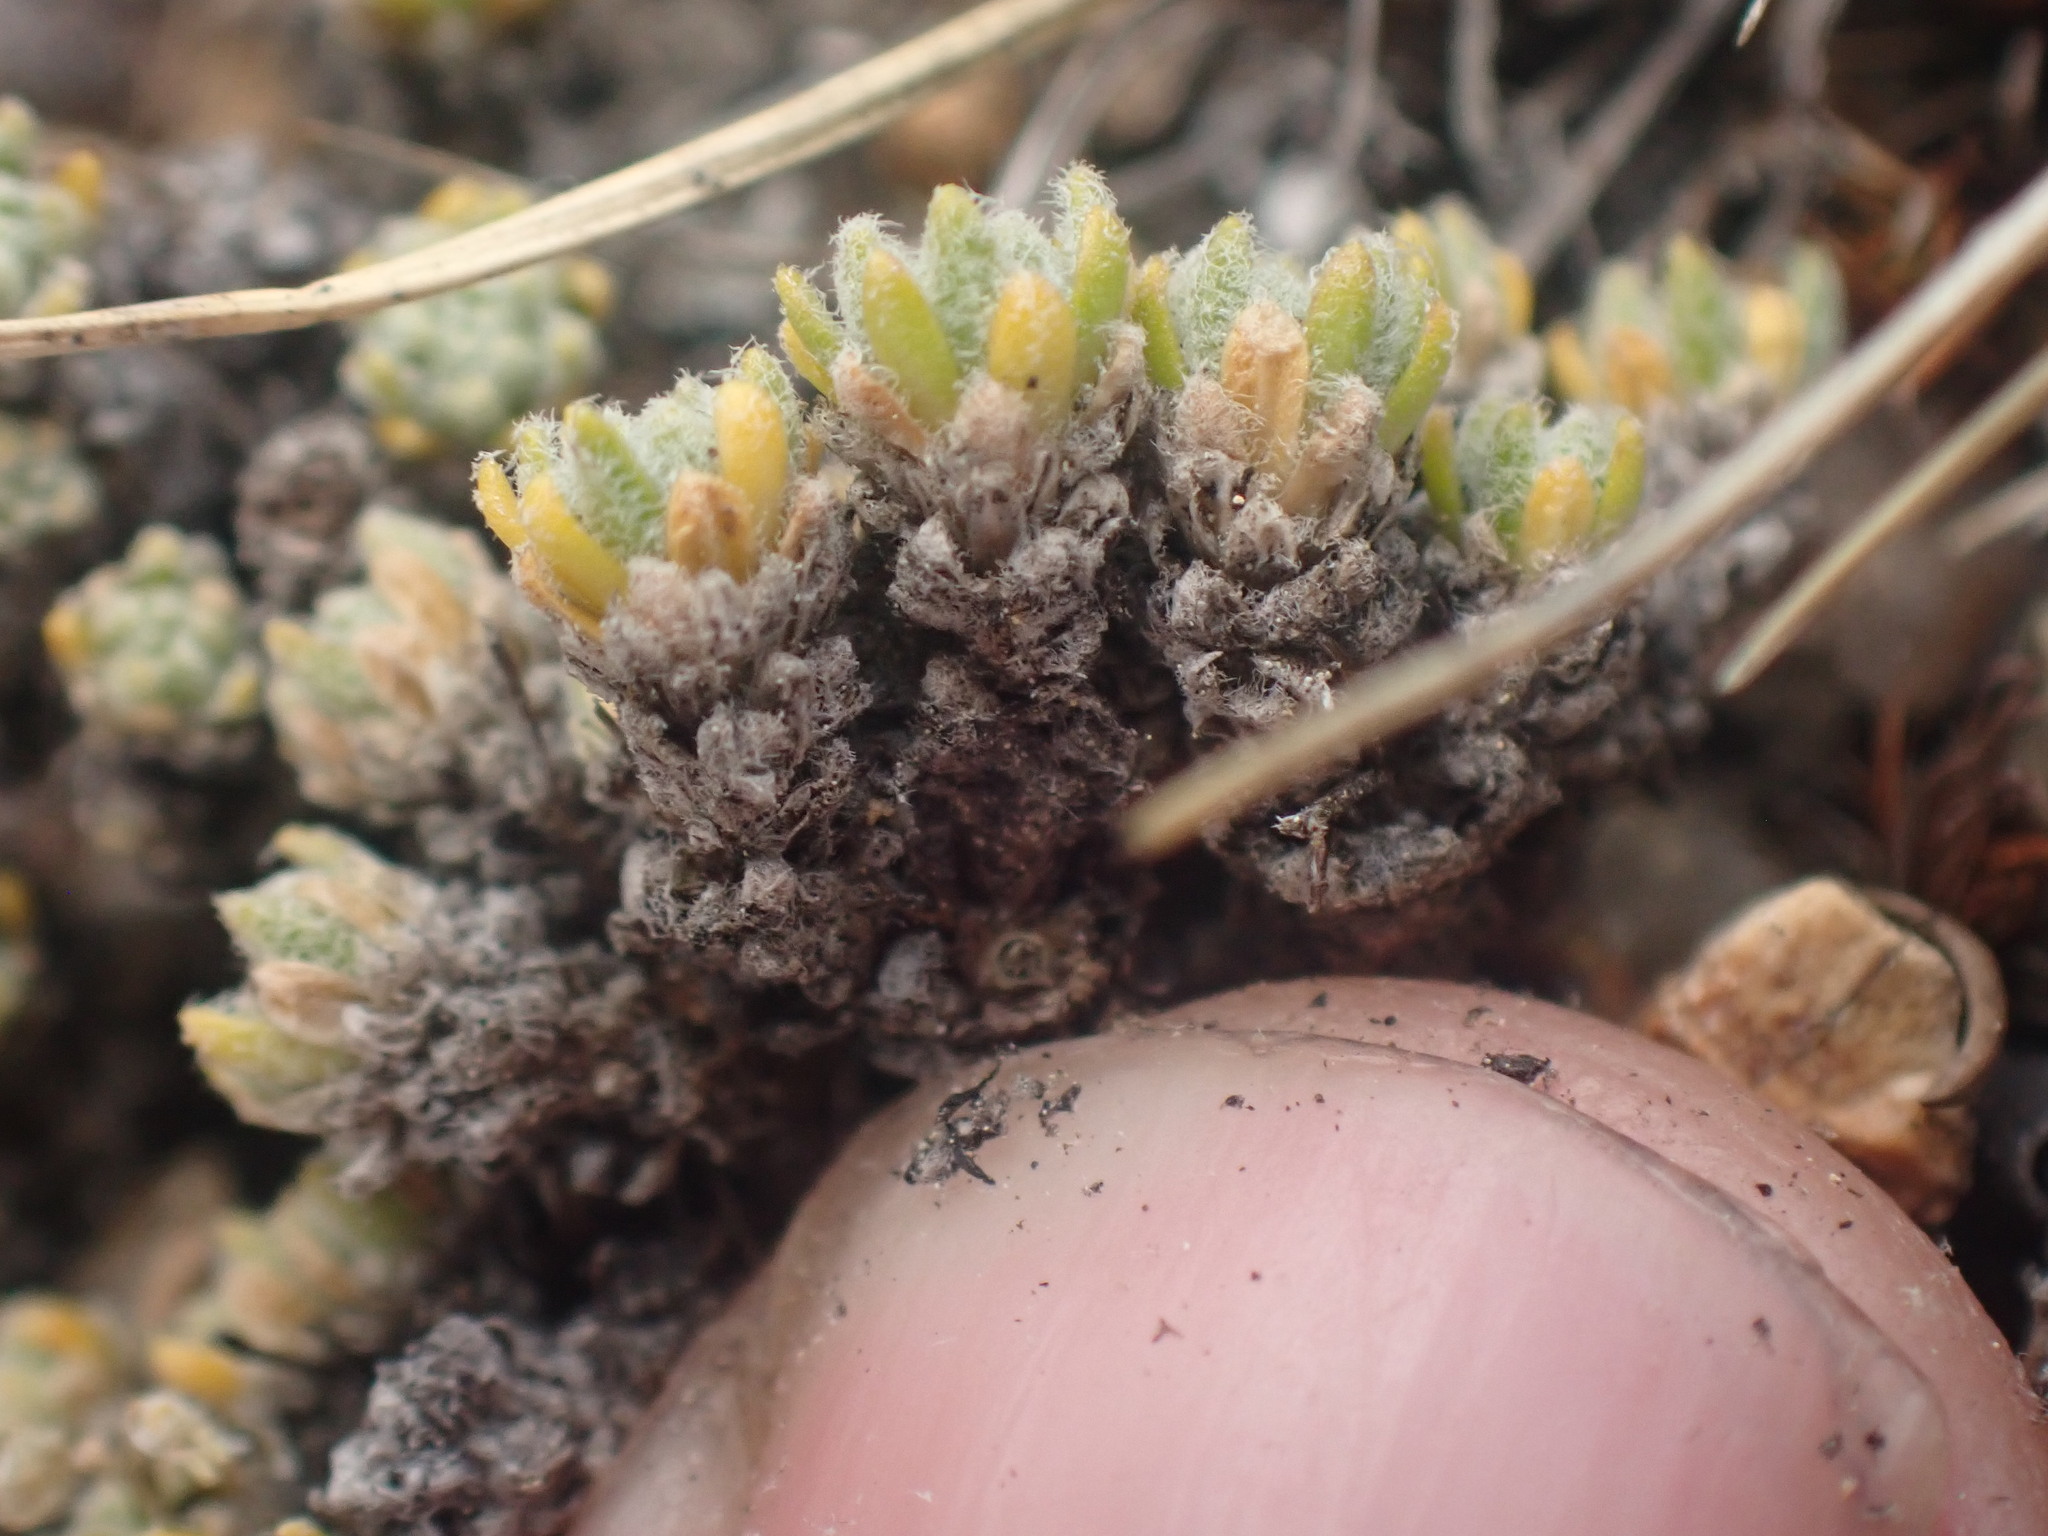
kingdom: Plantae
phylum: Tracheophyta
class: Magnoliopsida
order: Brassicales
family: Brassicaceae
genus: Draba
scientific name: Draba oligosperma
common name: Few-seed draba
